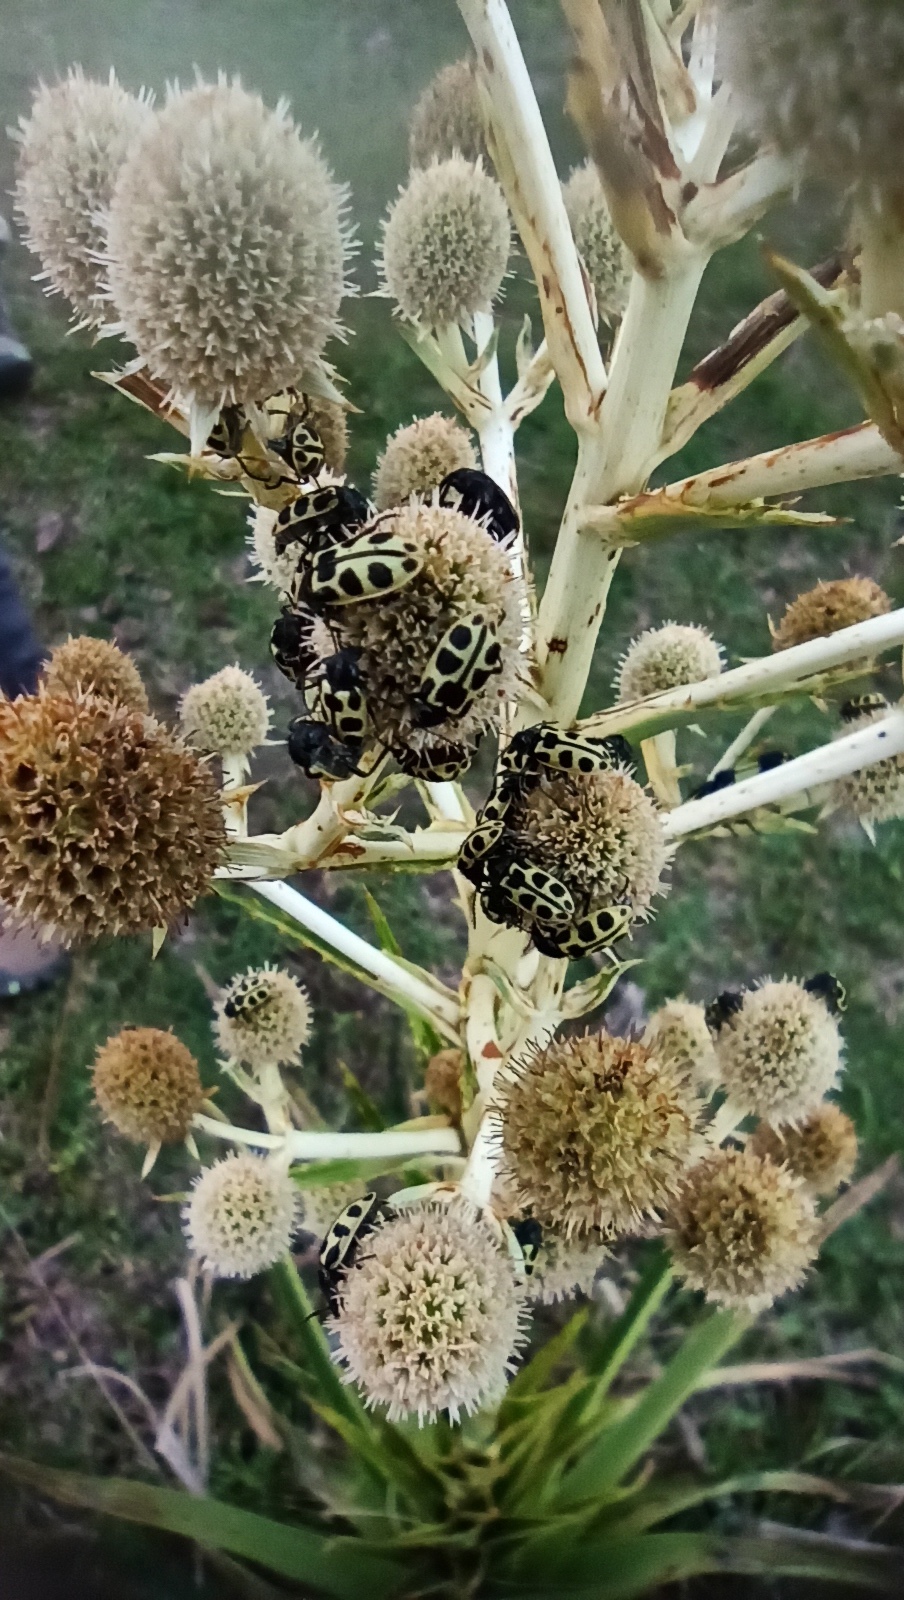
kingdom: Animalia
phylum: Arthropoda
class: Insecta
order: Coleoptera
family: Melyridae
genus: Astylus
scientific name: Astylus
